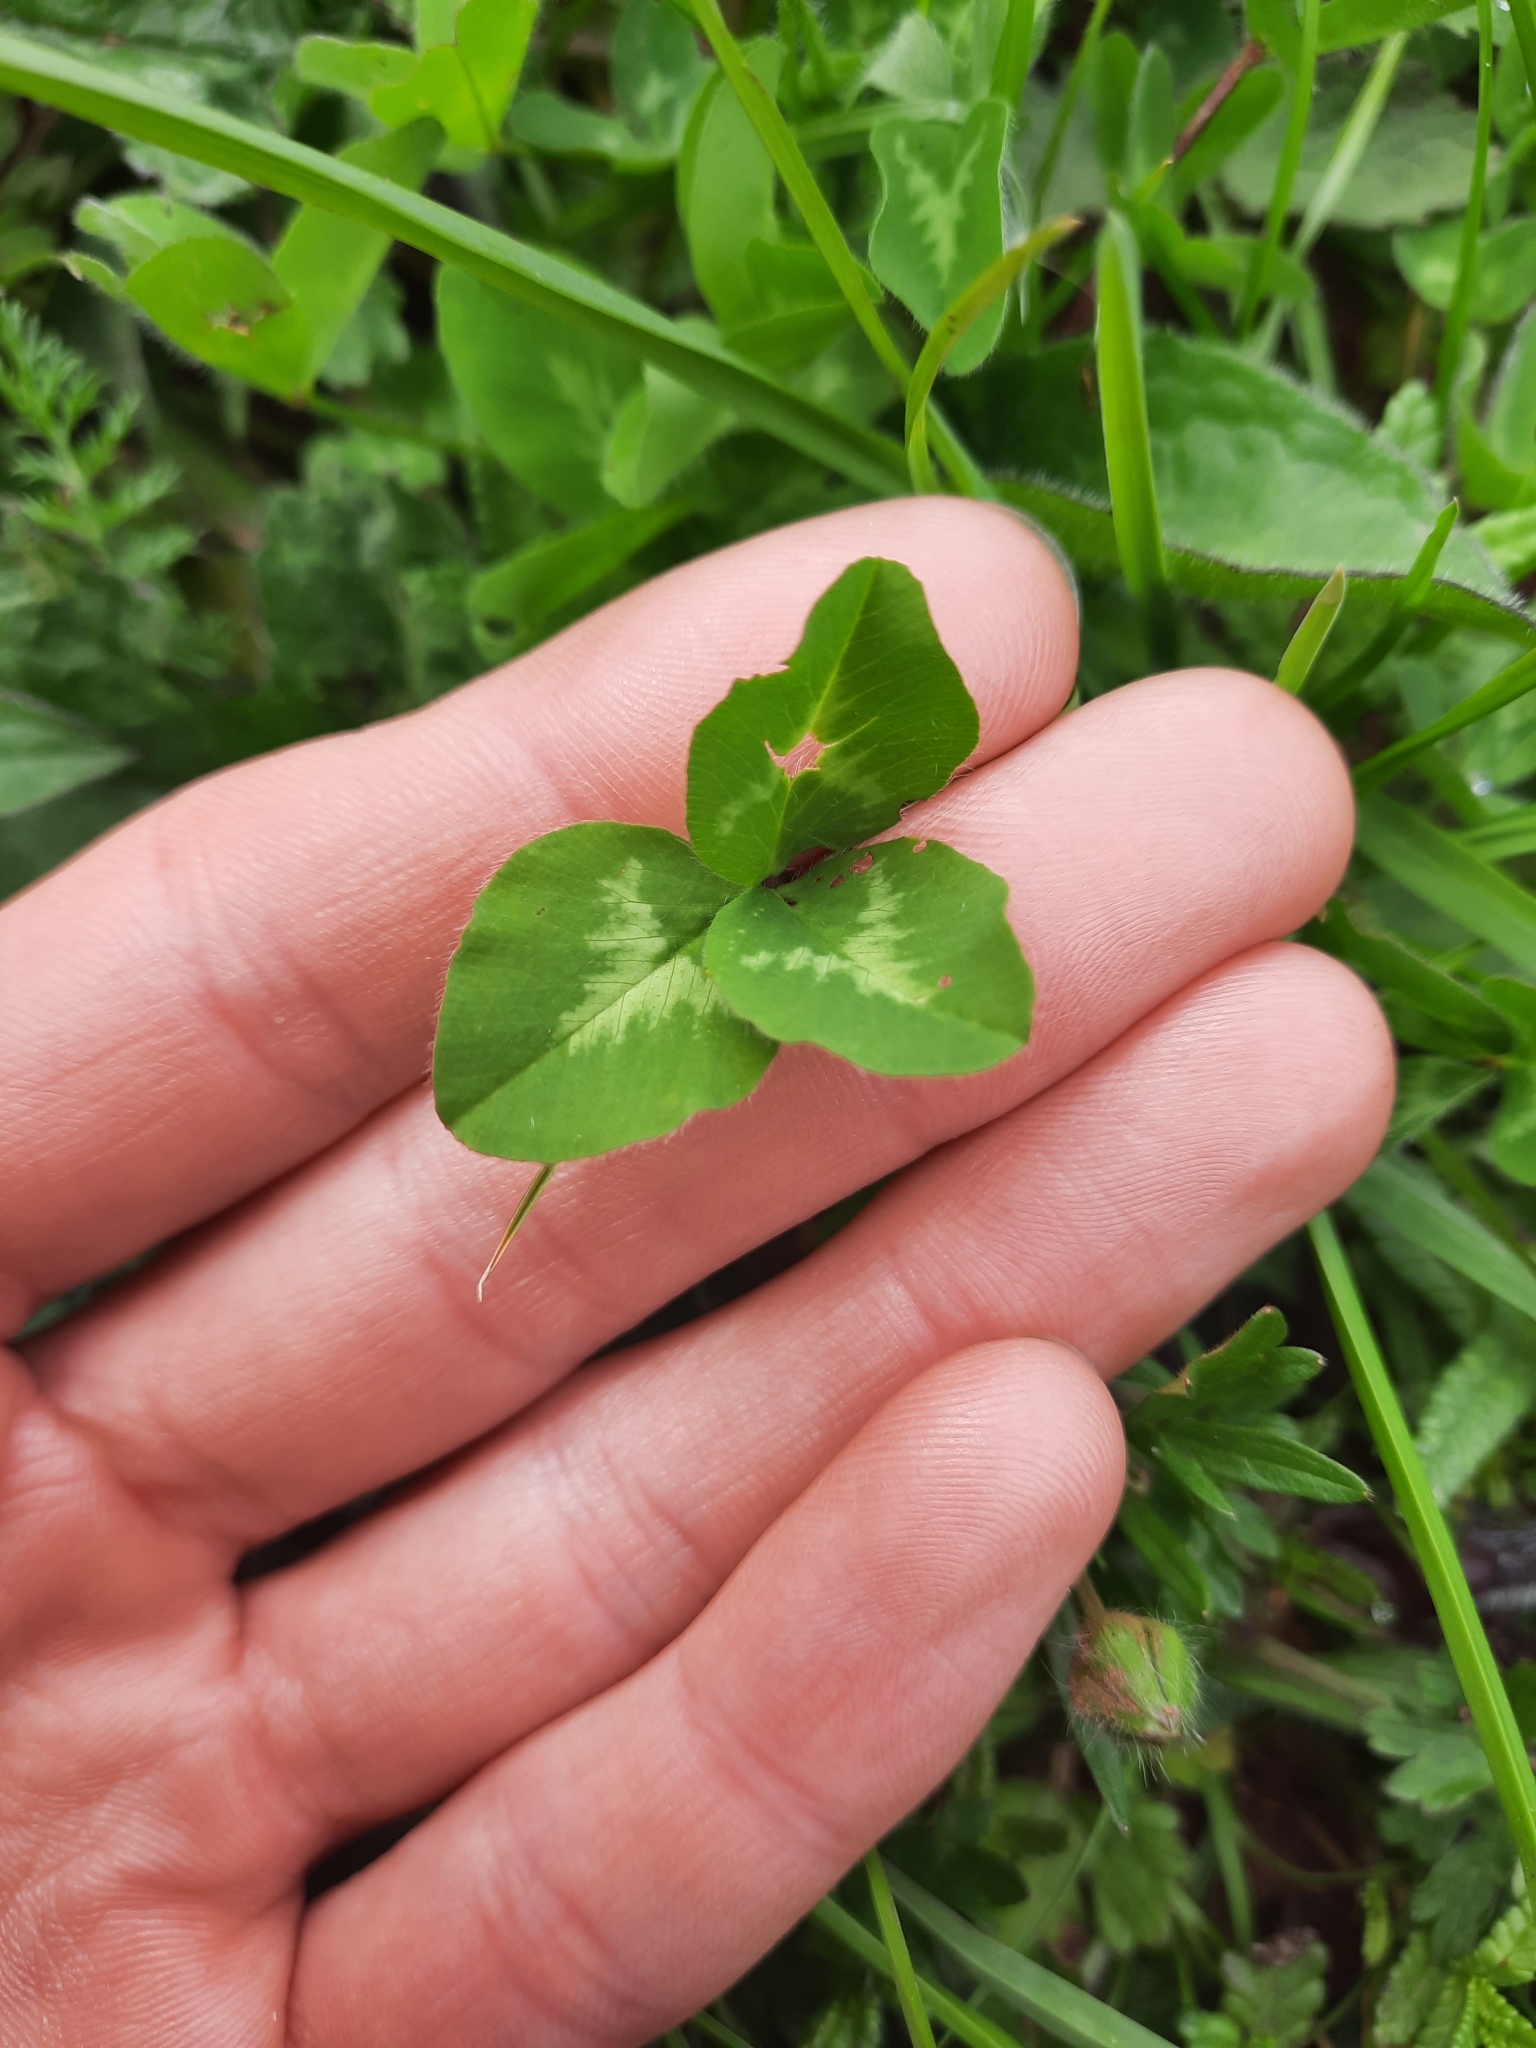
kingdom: Plantae
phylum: Tracheophyta
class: Magnoliopsida
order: Fabales
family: Fabaceae
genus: Trifolium
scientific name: Trifolium pratense
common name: Red clover
